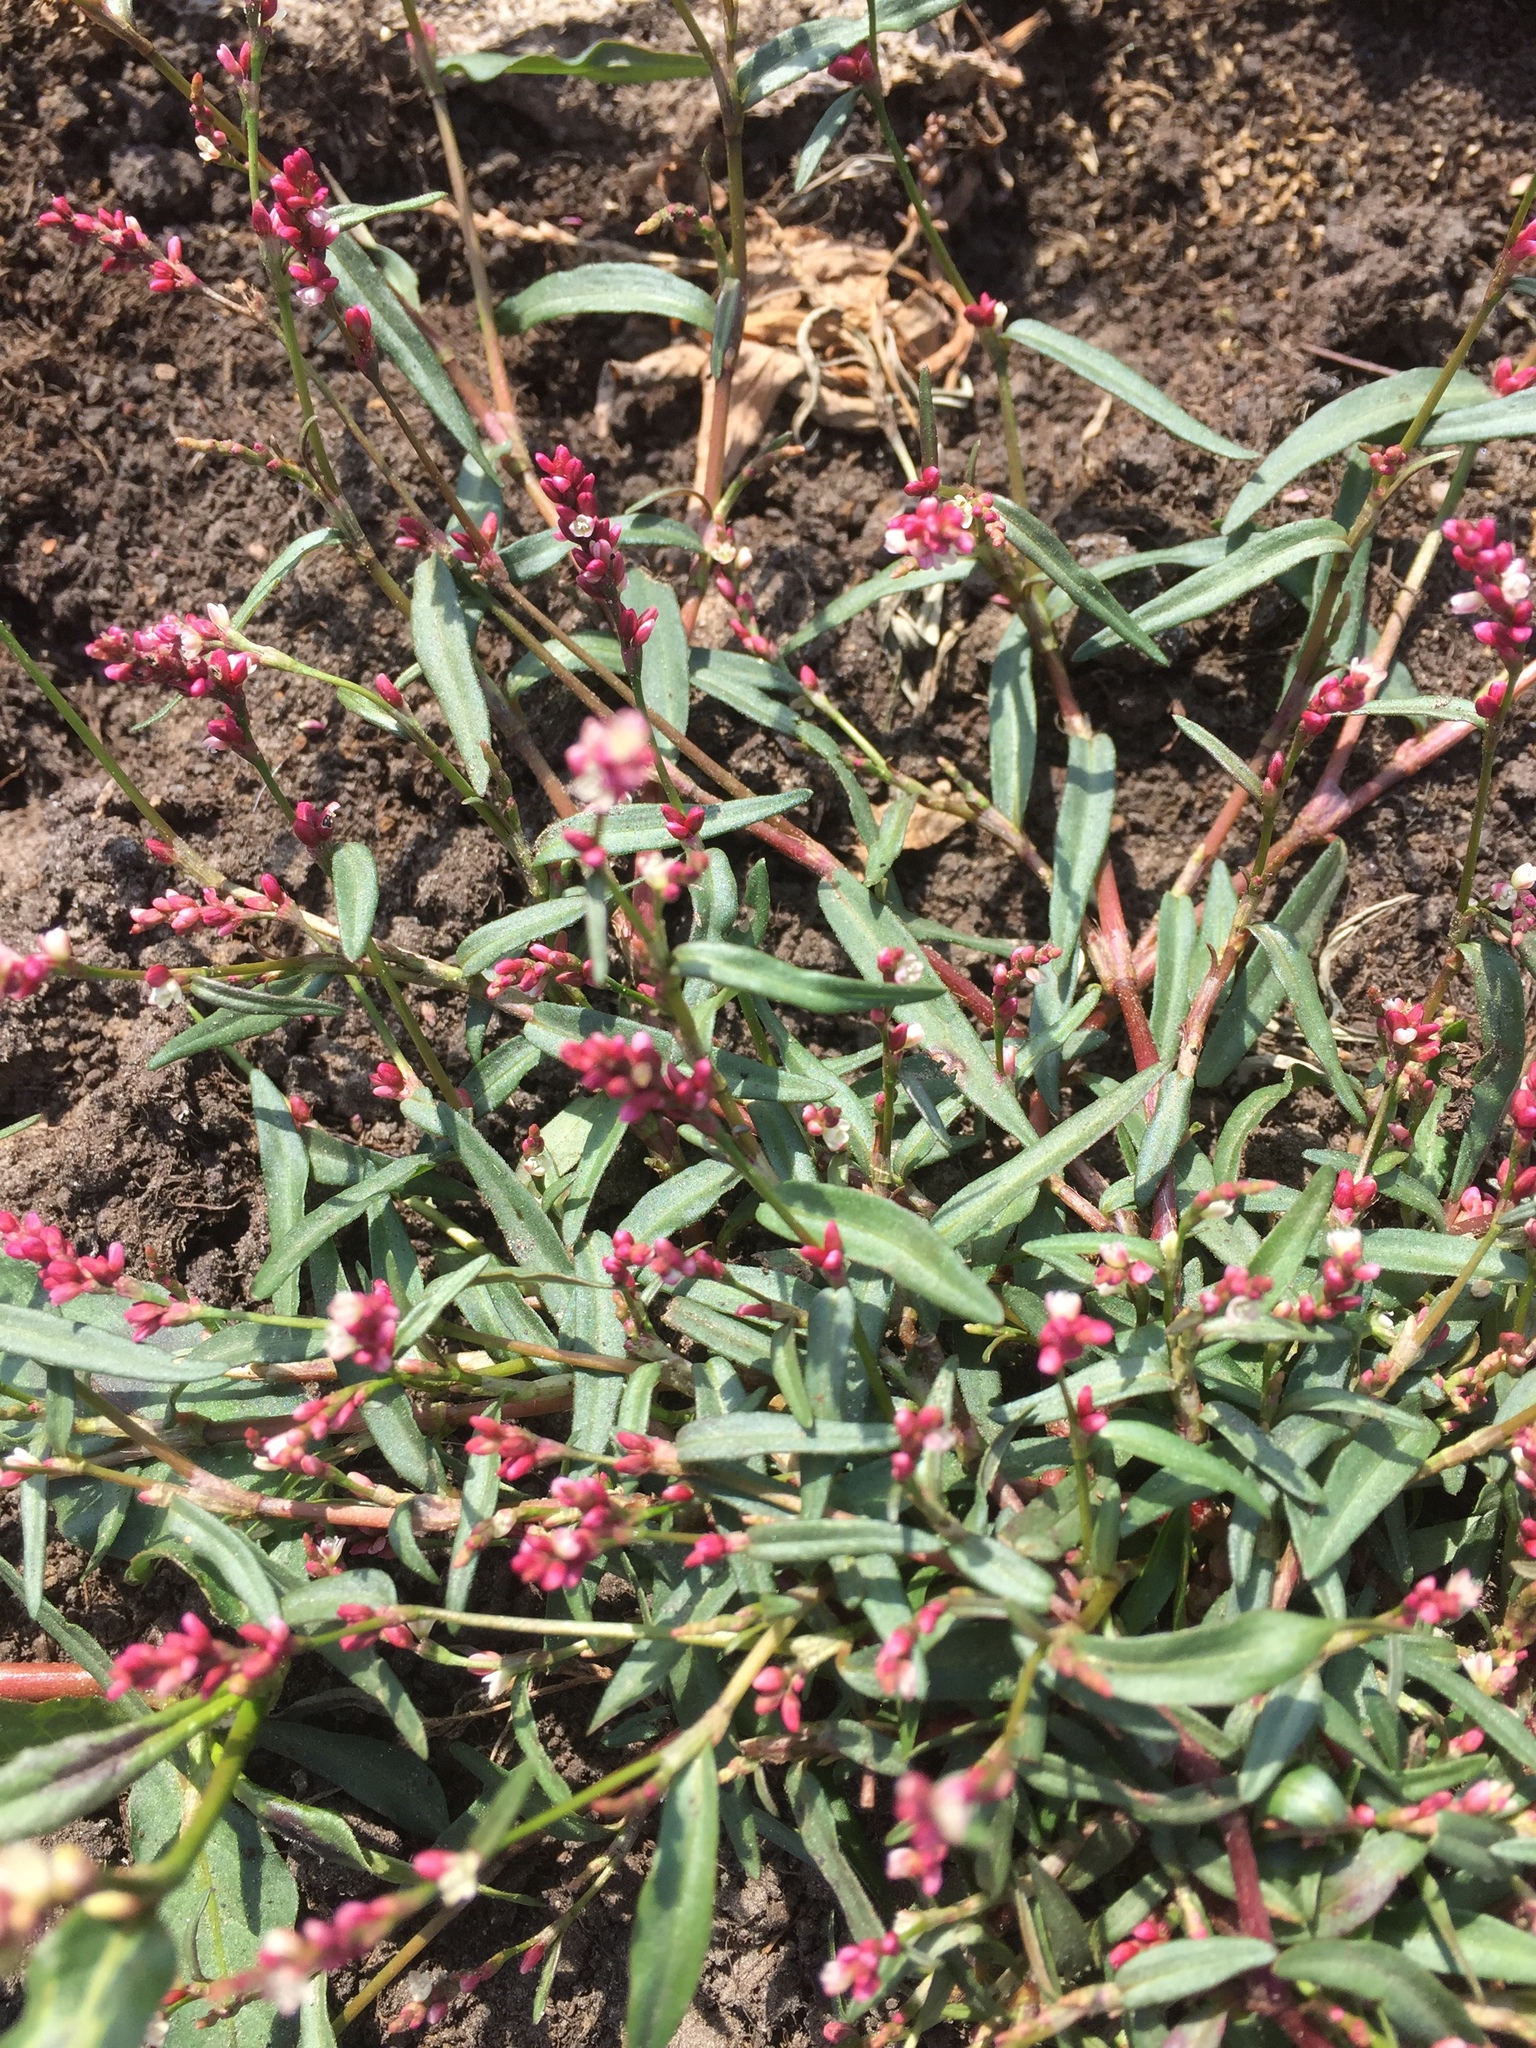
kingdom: Plantae
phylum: Tracheophyta
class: Magnoliopsida
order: Caryophyllales
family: Polygonaceae
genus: Persicaria
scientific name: Persicaria minor
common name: Small water-pepper
